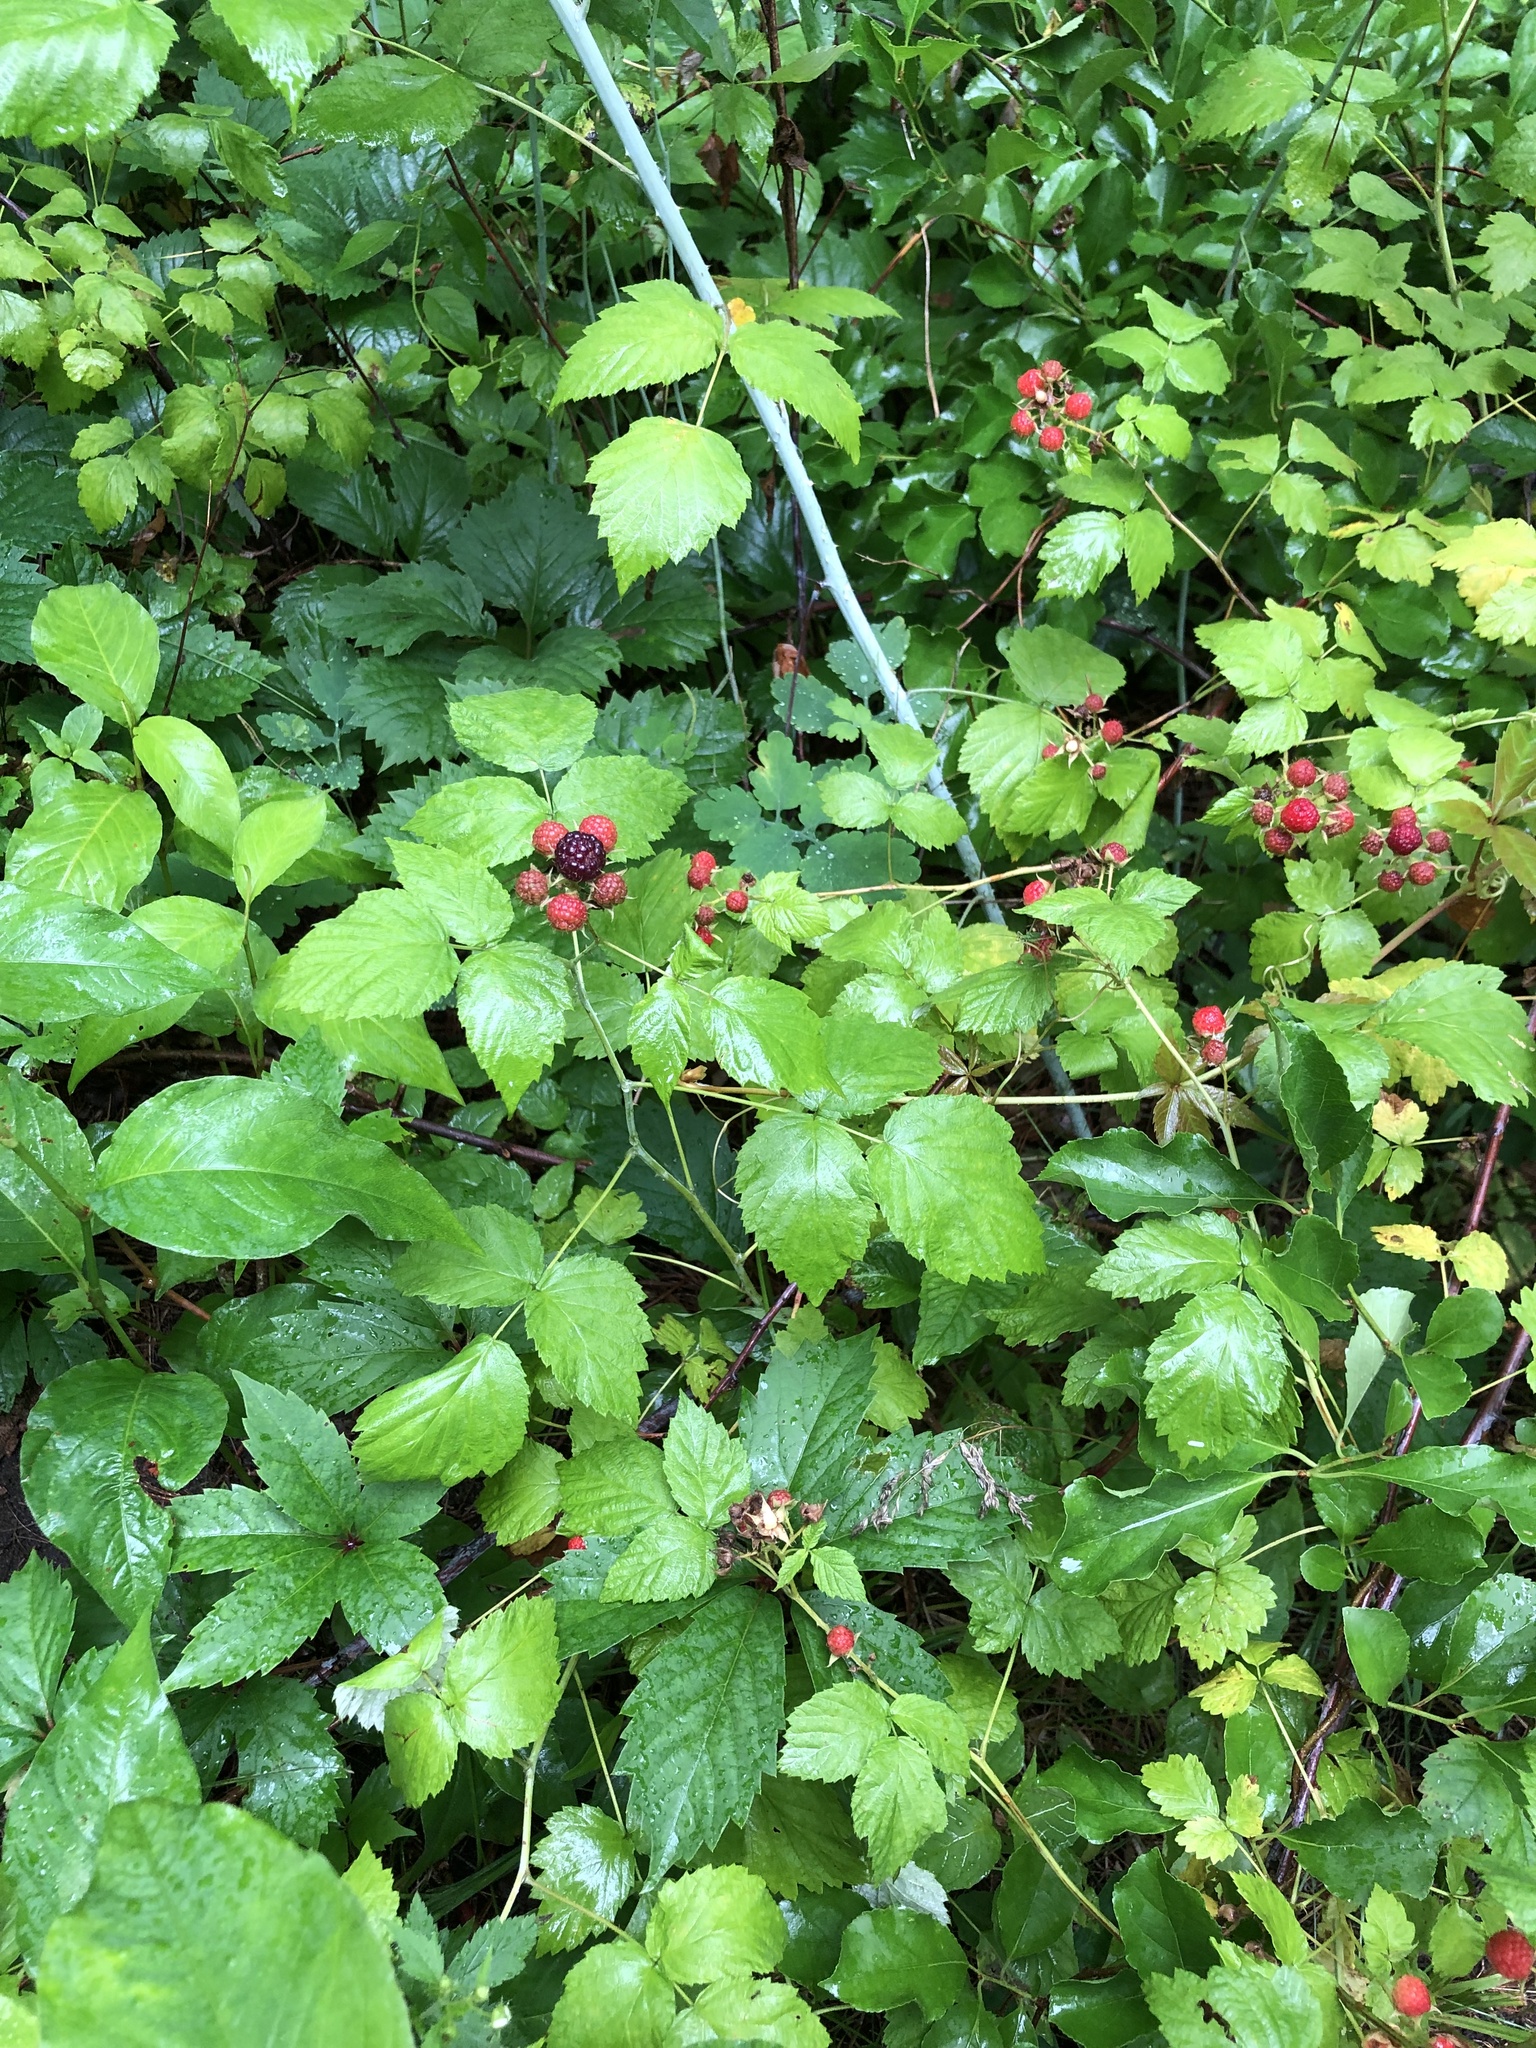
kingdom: Plantae
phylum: Tracheophyta
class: Magnoliopsida
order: Rosales
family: Rosaceae
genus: Rubus
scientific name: Rubus occidentalis
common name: Black raspberry
